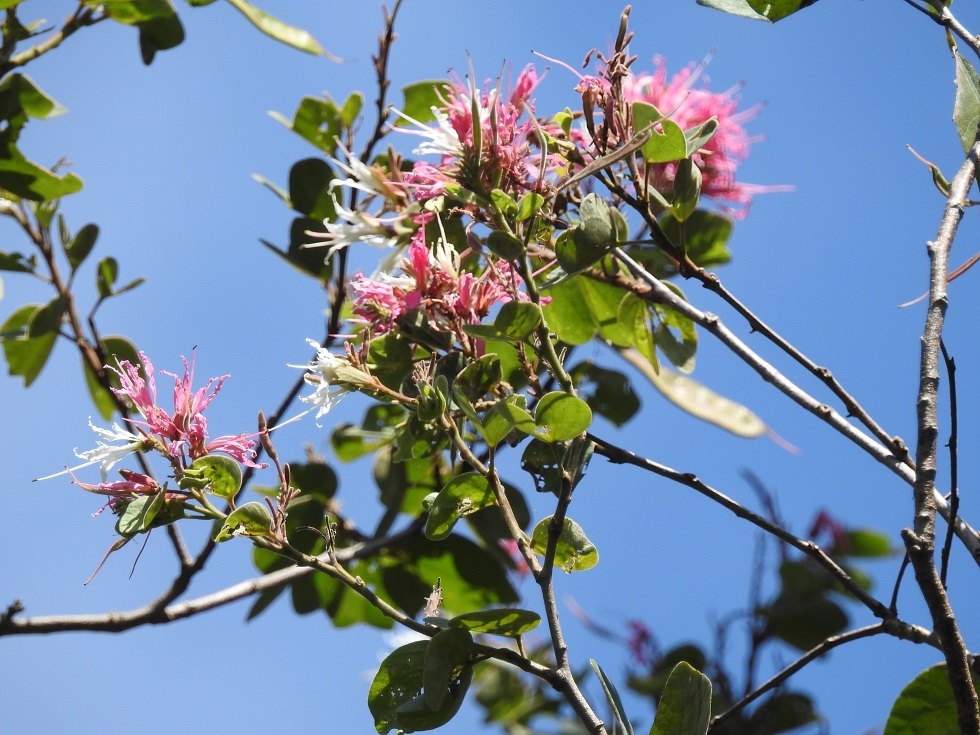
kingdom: Plantae
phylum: Tracheophyta
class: Magnoliopsida
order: Fabales
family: Fabaceae
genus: Bauhinia
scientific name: Bauhinia divaricata
